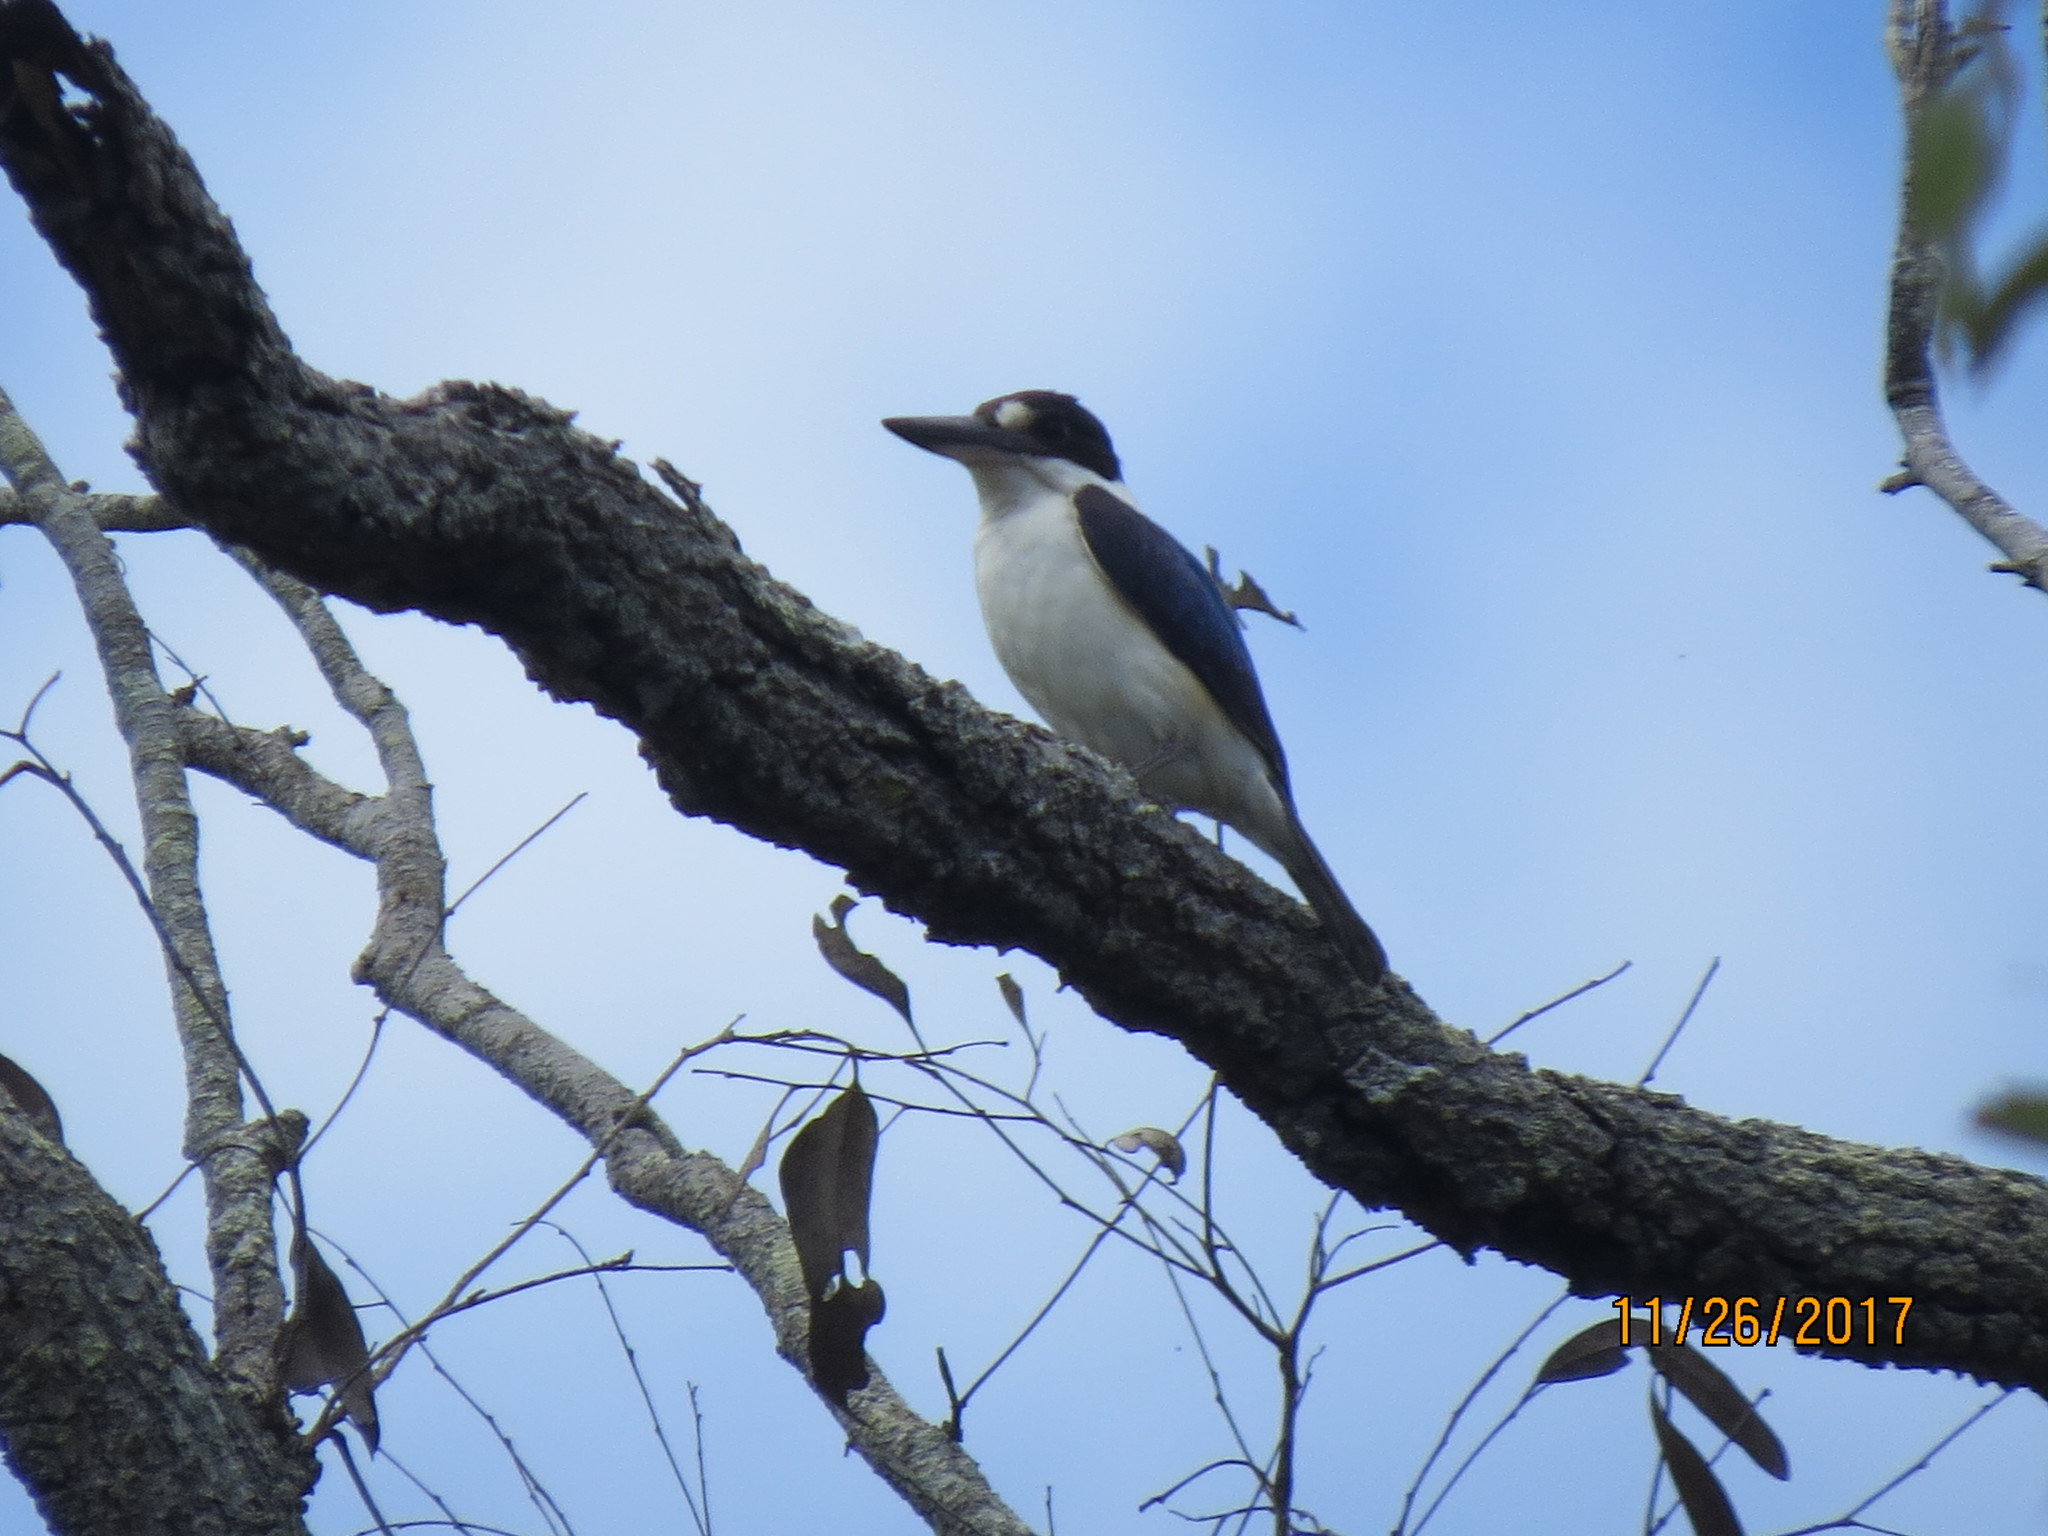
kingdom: Animalia
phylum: Chordata
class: Aves
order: Coraciiformes
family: Alcedinidae
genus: Todiramphus
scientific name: Todiramphus macleayii
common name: Forest kingfisher
